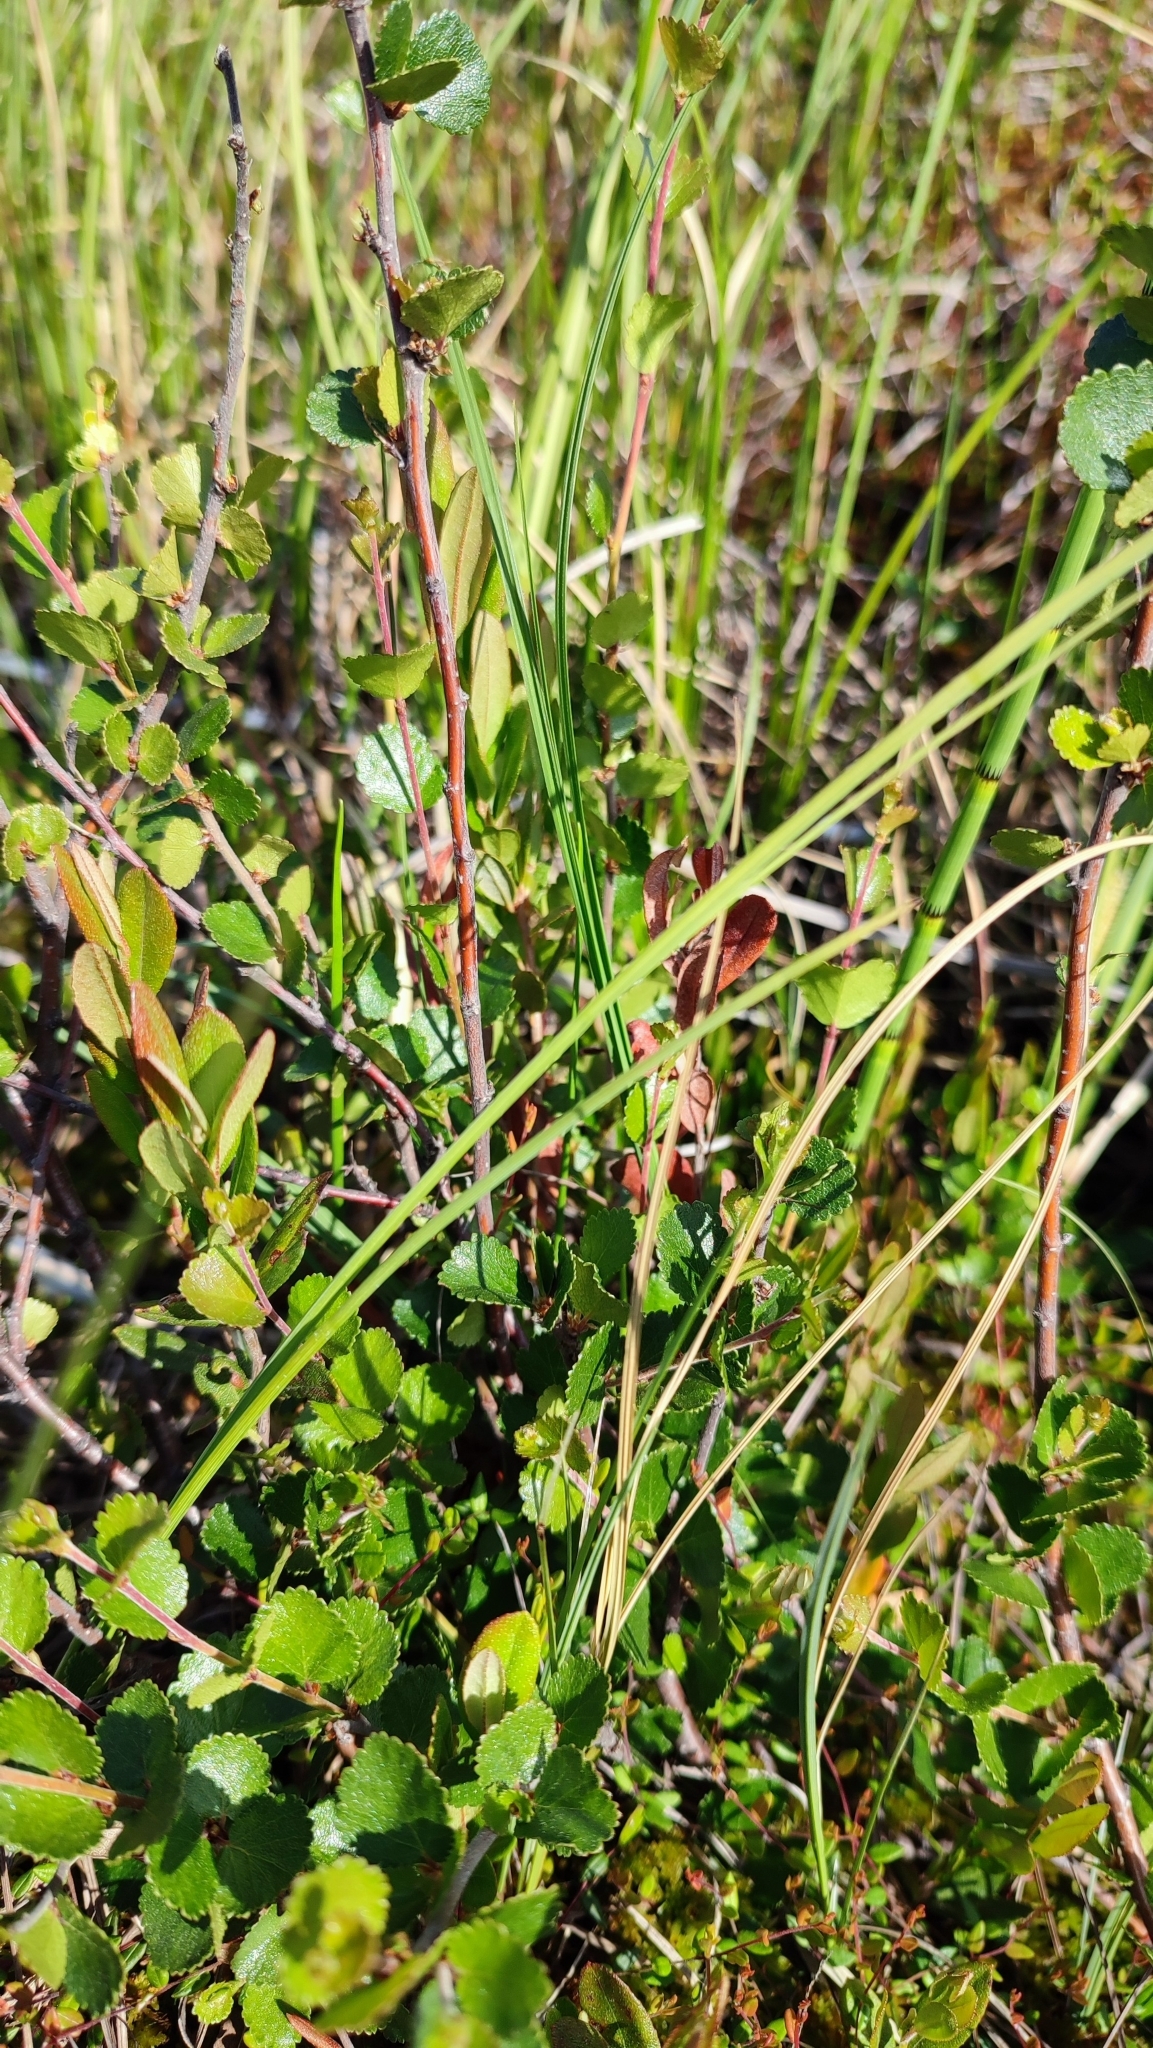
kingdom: Plantae
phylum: Tracheophyta
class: Magnoliopsida
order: Fagales
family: Betulaceae
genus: Betula
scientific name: Betula nana
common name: Arctic dwarf birch
